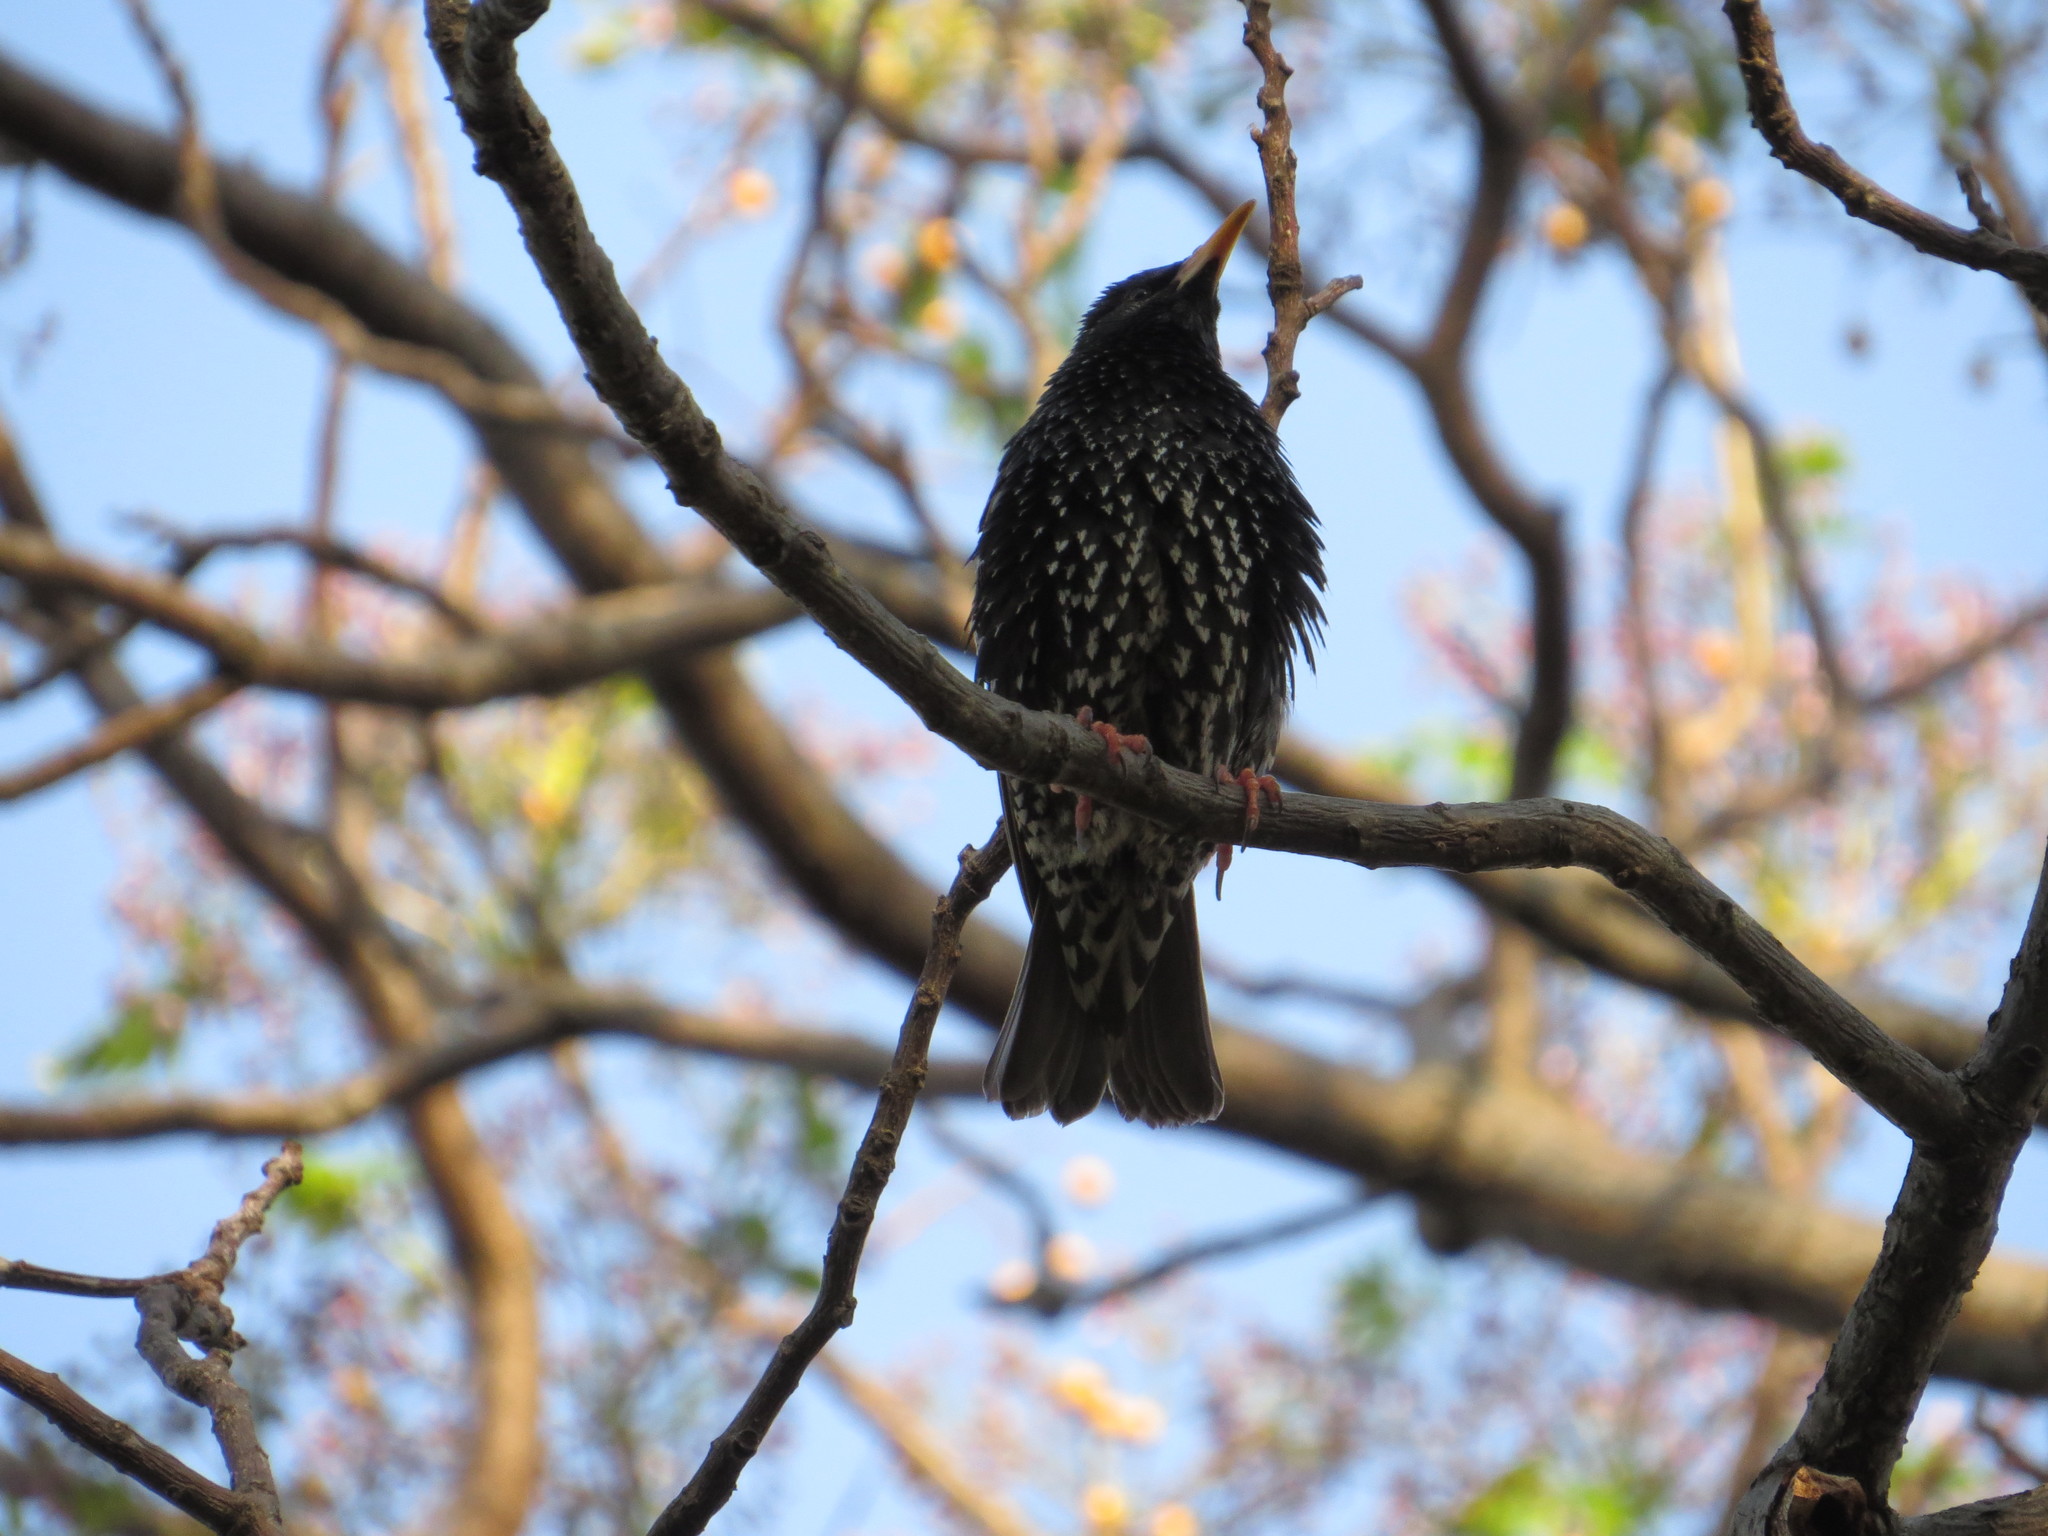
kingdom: Animalia
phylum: Chordata
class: Aves
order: Passeriformes
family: Sturnidae
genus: Sturnus
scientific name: Sturnus vulgaris
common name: Common starling
